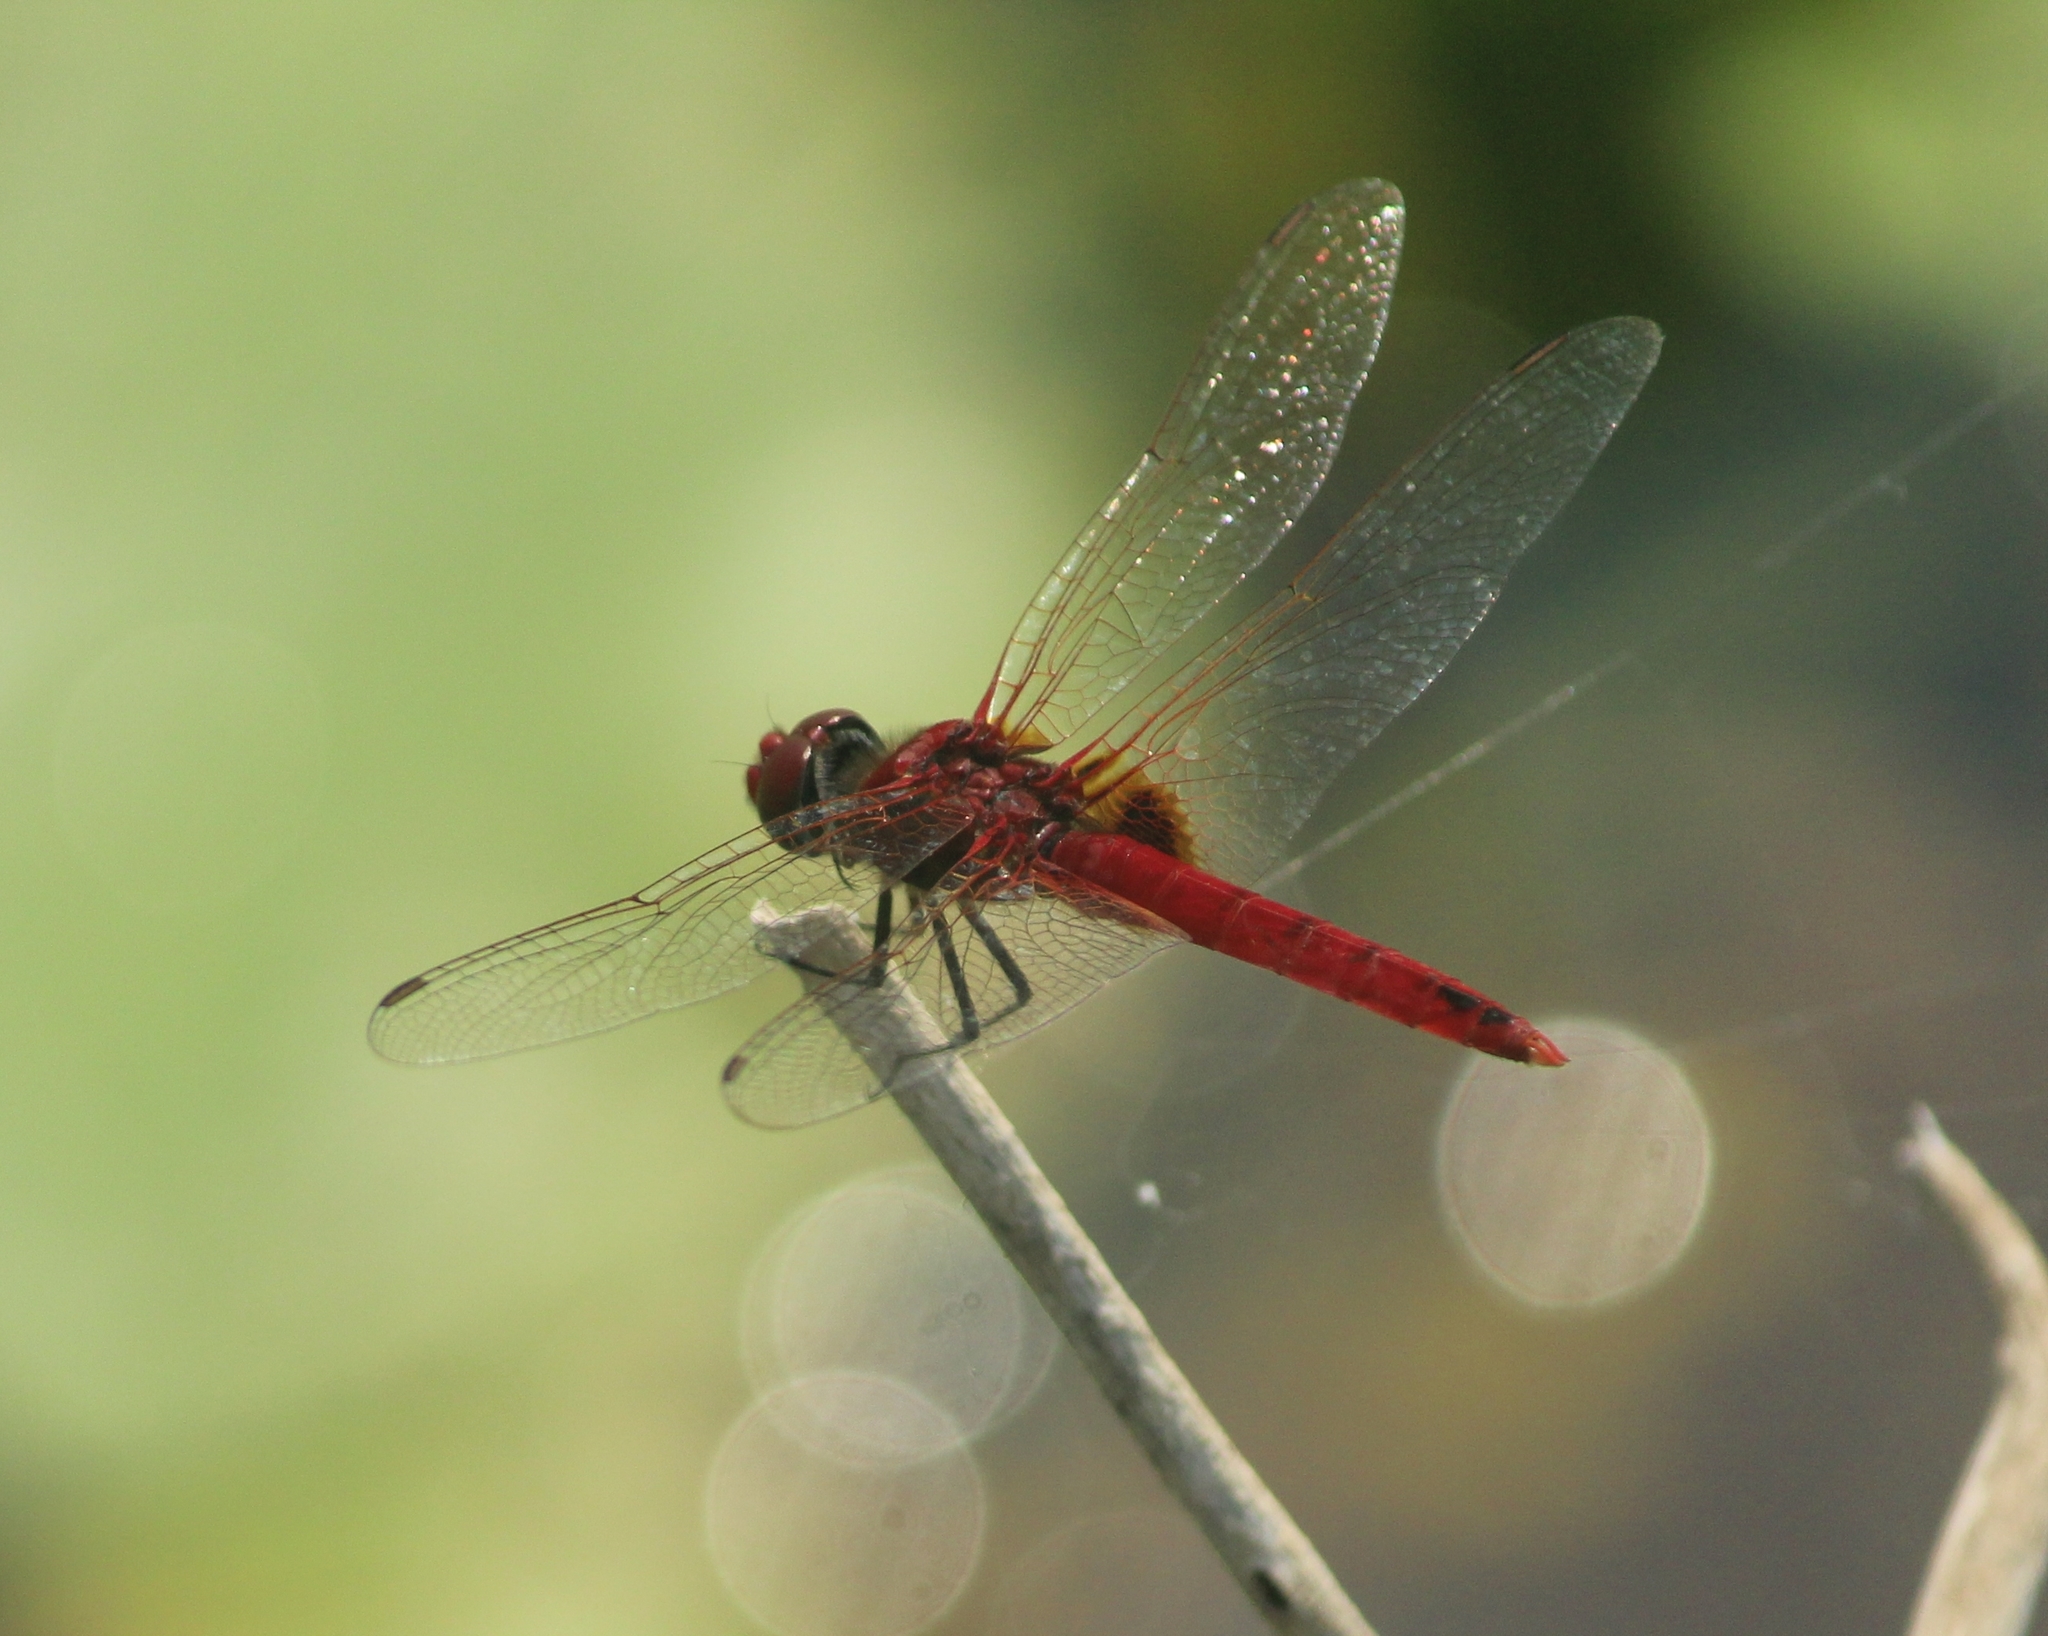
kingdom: Animalia
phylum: Arthropoda
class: Insecta
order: Odonata
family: Libellulidae
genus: Urothemis
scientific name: Urothemis signata
